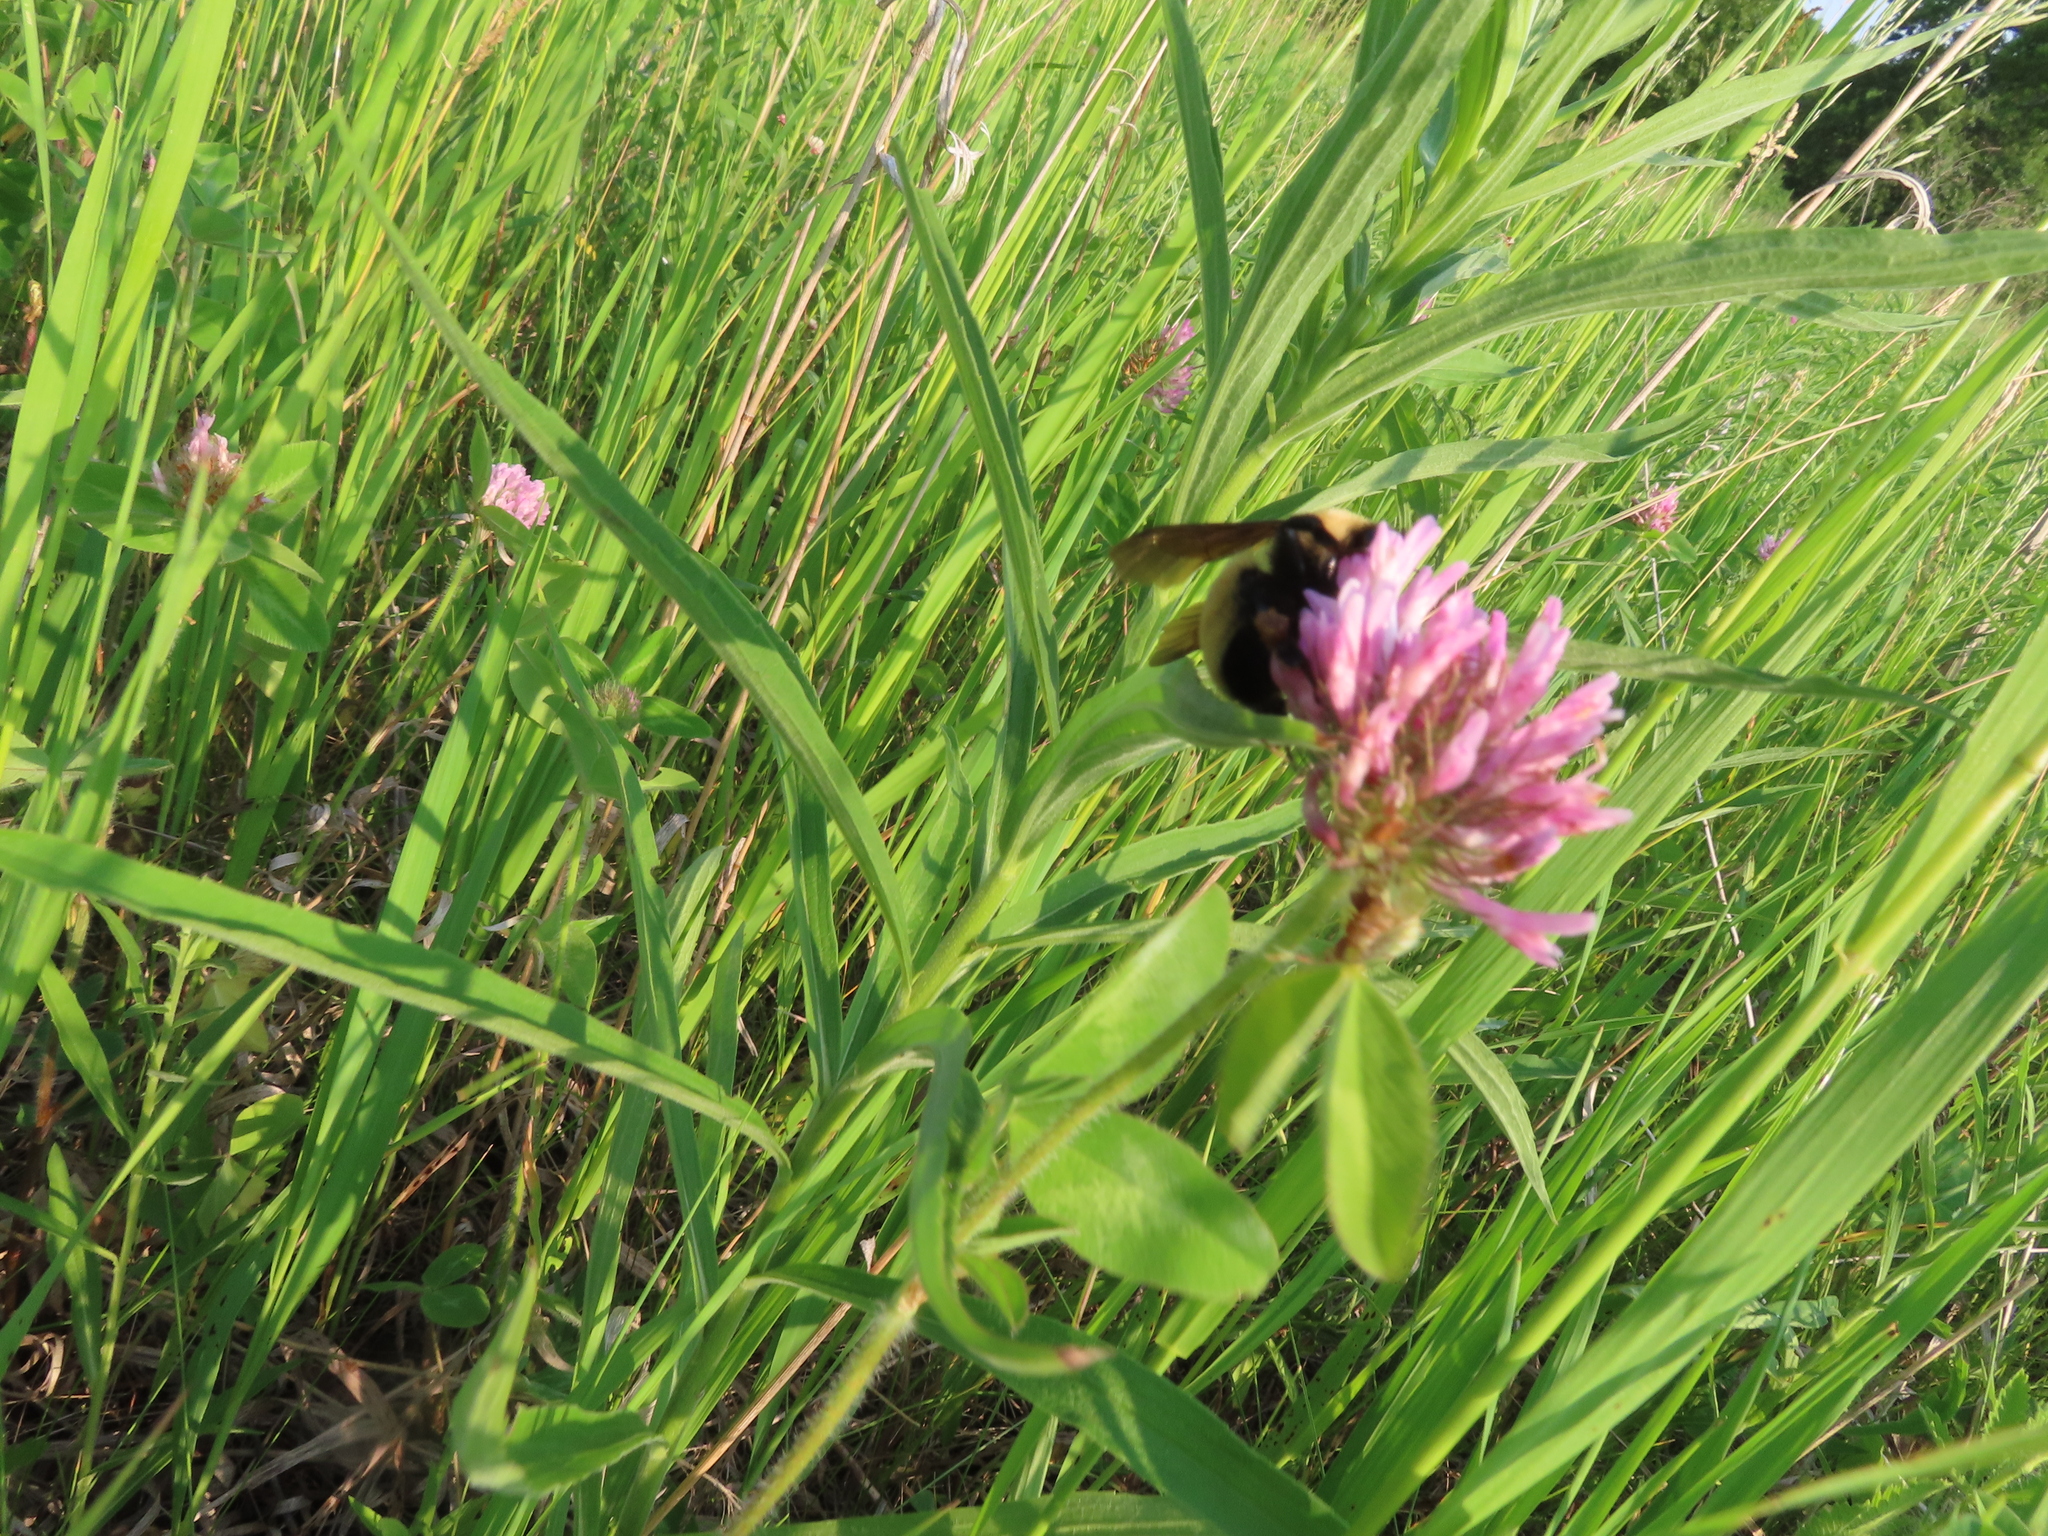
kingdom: Animalia
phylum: Arthropoda
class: Insecta
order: Hymenoptera
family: Apidae
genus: Bombus
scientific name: Bombus
